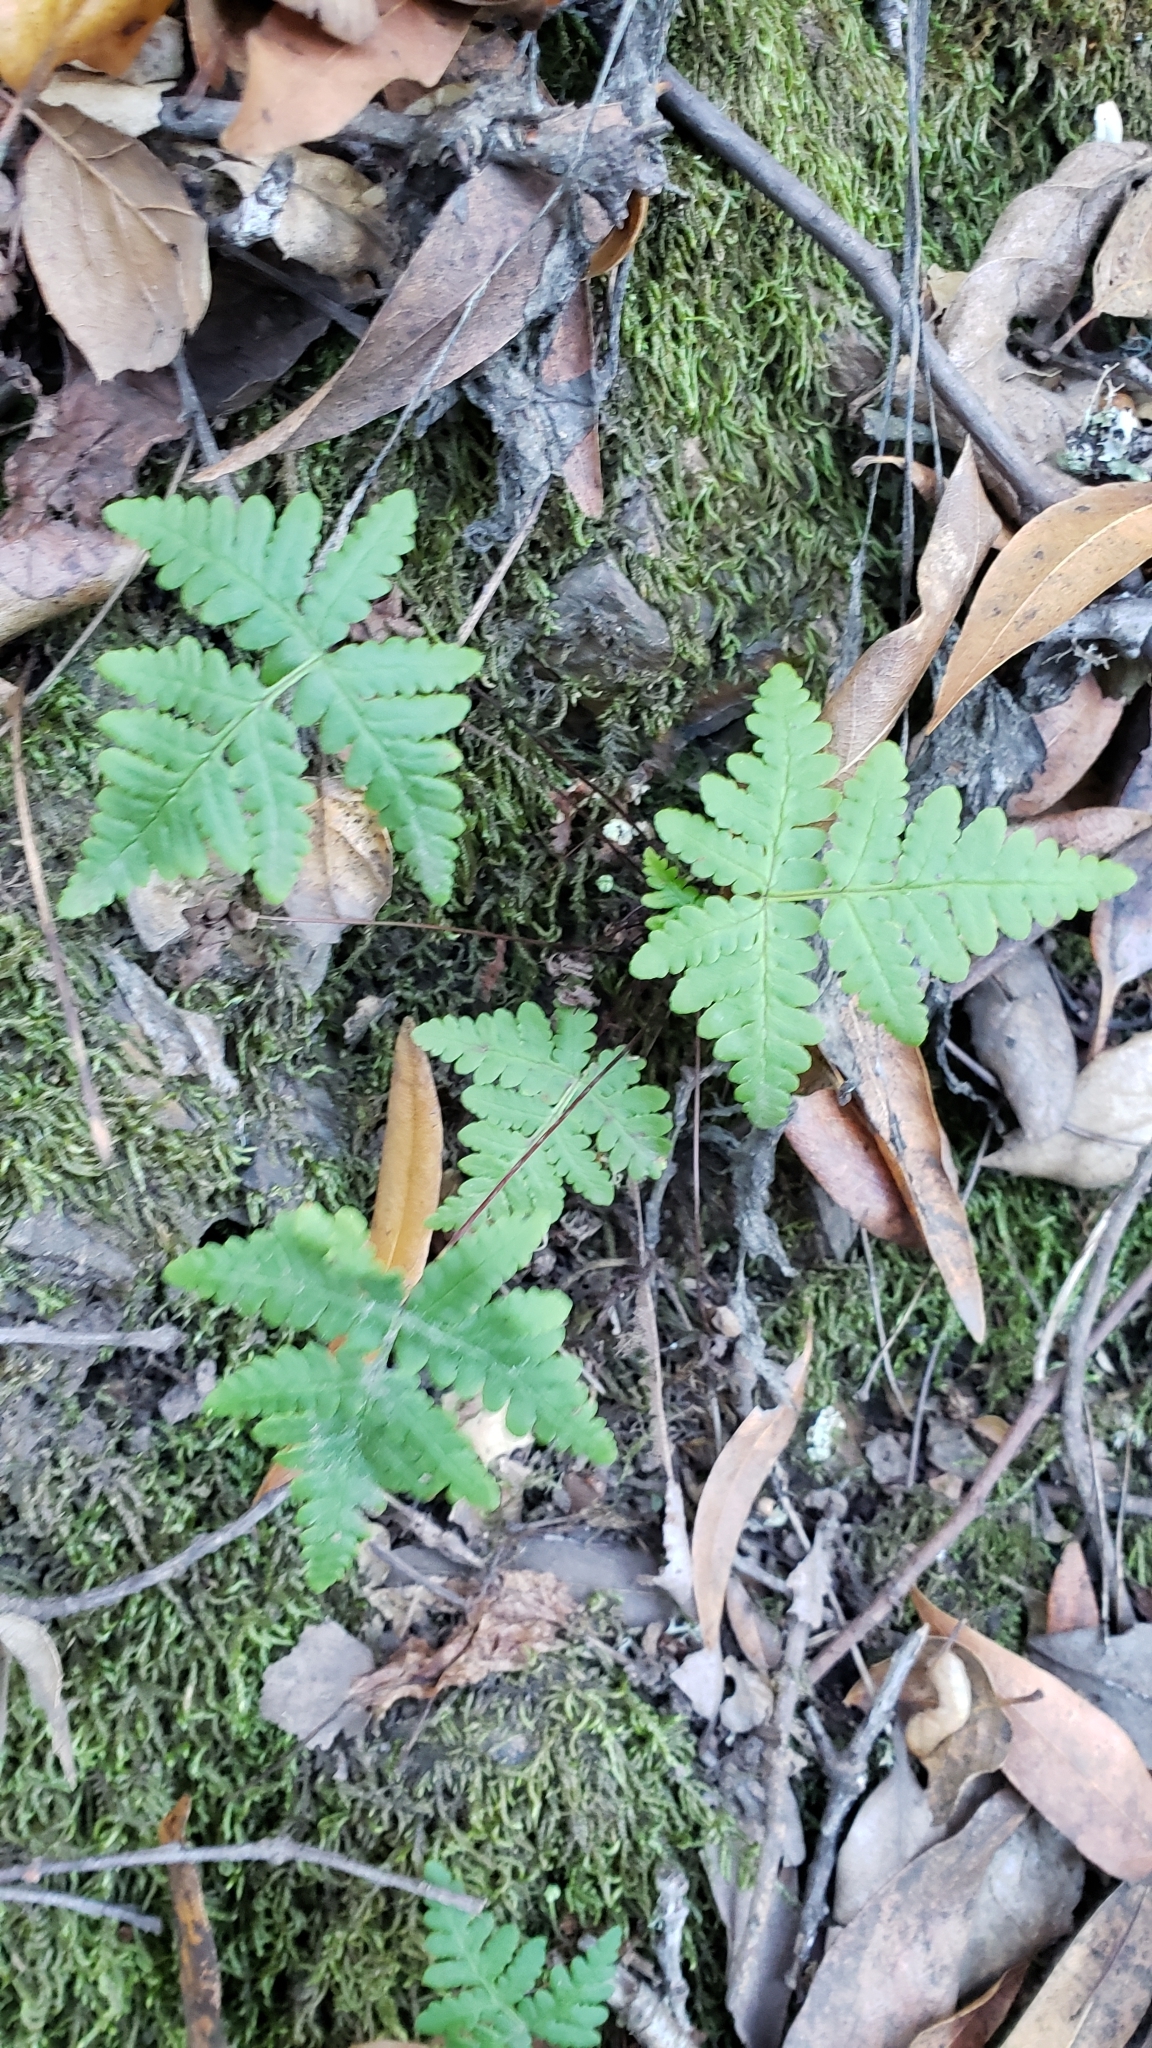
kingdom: Plantae
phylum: Tracheophyta
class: Polypodiopsida
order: Polypodiales
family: Pteridaceae
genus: Pentagramma
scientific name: Pentagramma triangularis
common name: Gold fern
